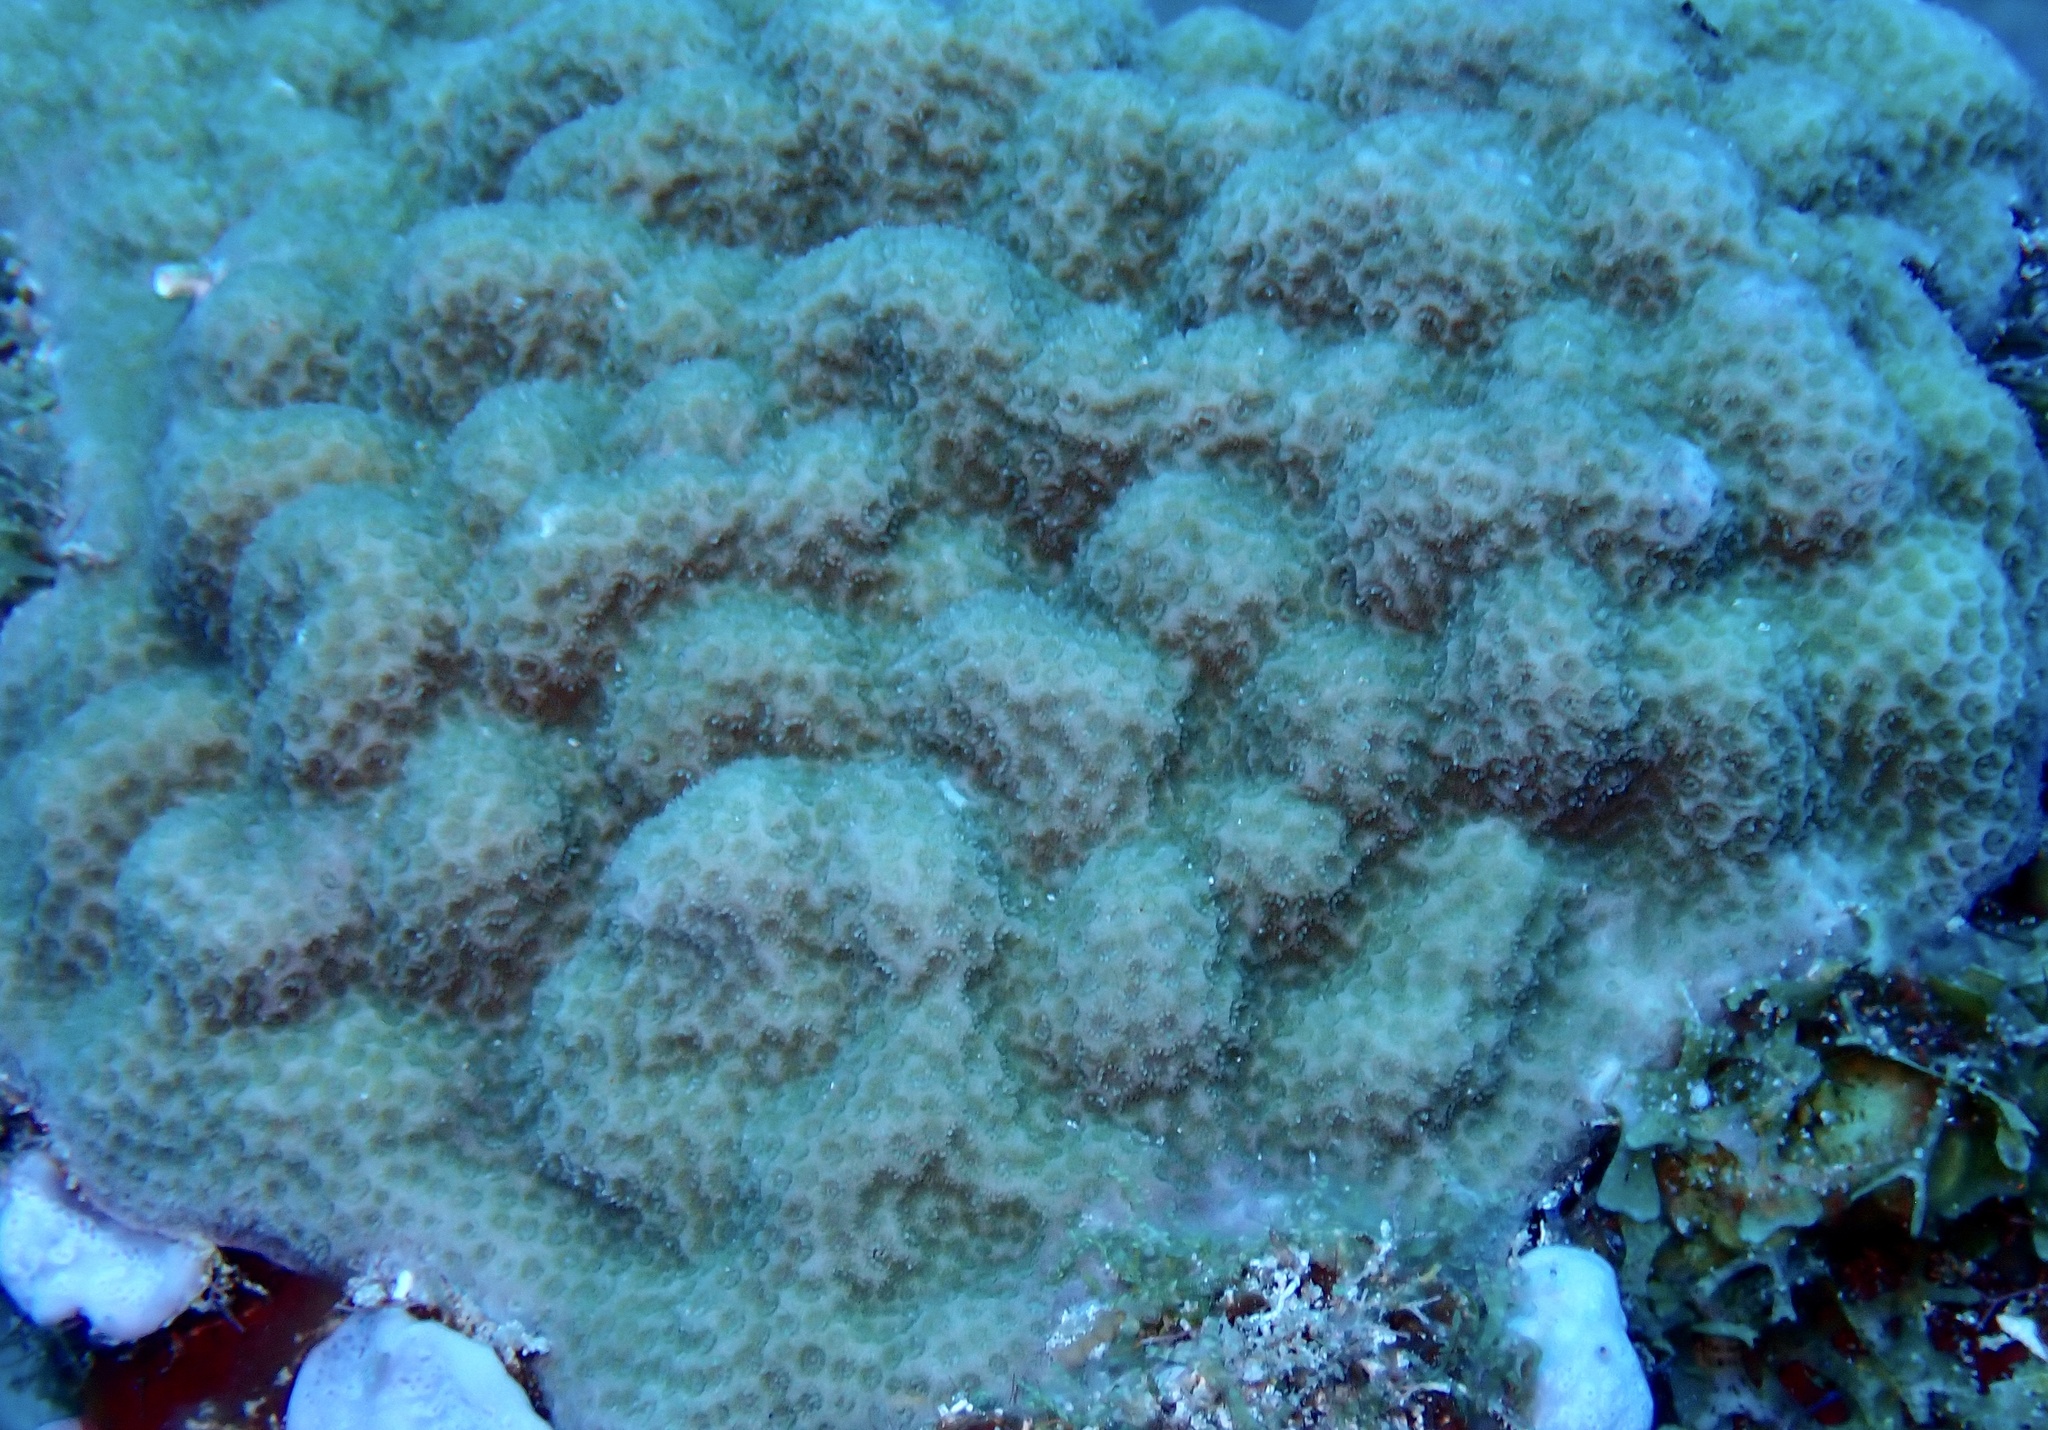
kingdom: Animalia
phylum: Cnidaria
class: Anthozoa
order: Scleractinia
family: Poritidae
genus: Porites
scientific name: Porites astreoides
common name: Mustard hill coral
